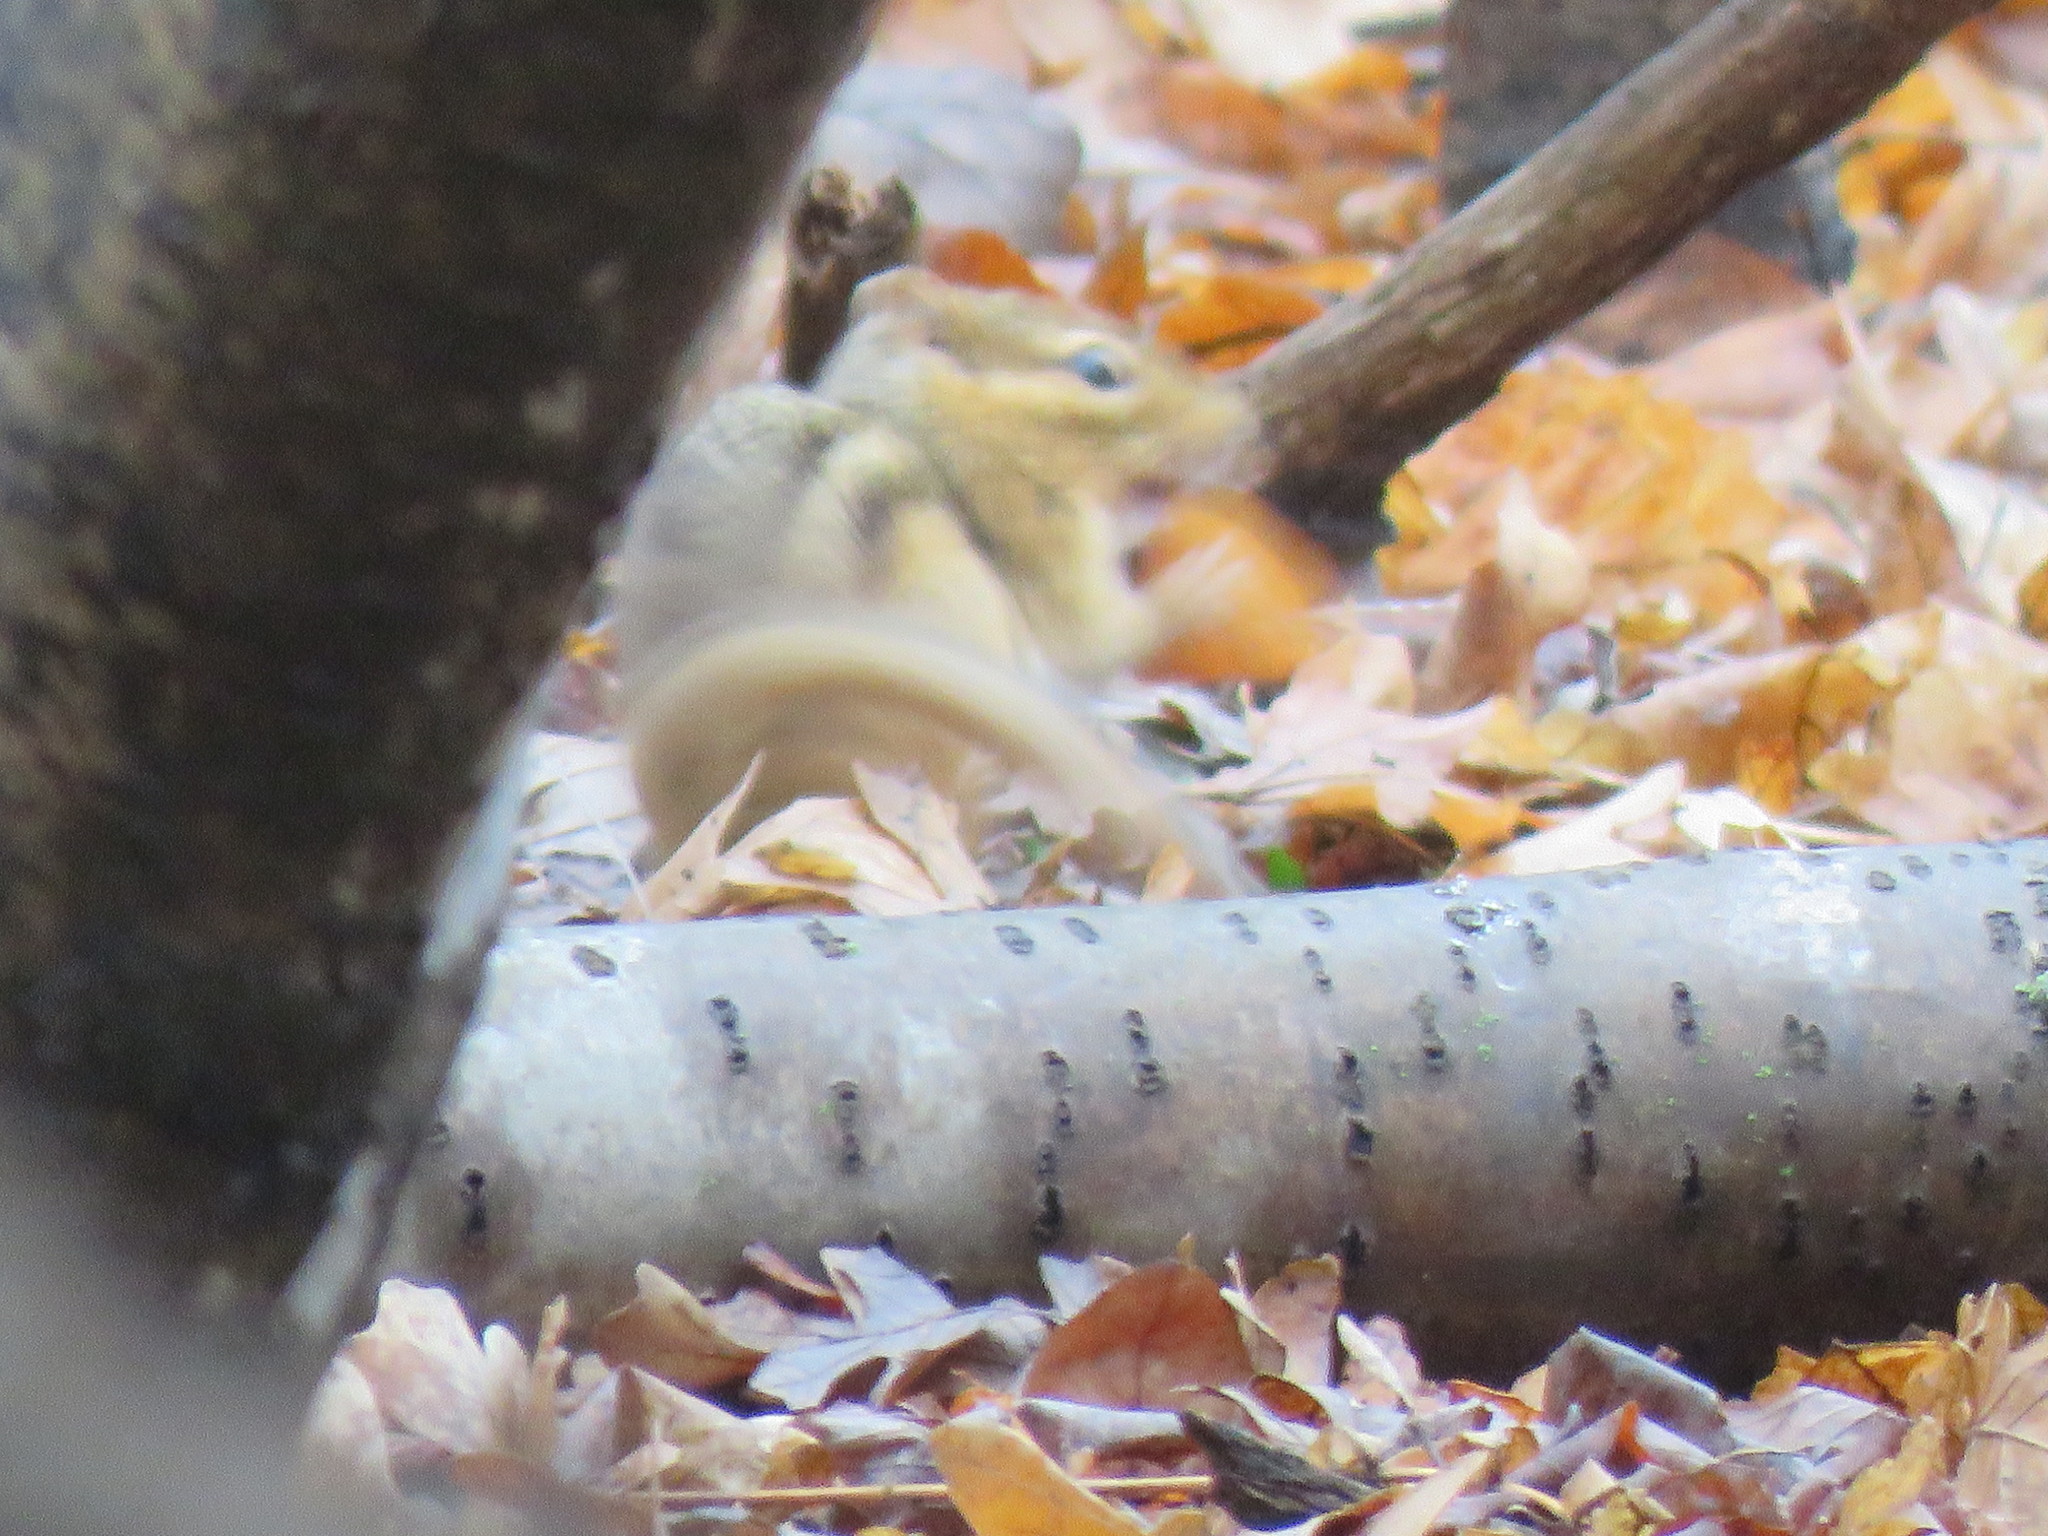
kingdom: Animalia
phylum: Chordata
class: Mammalia
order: Rodentia
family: Sciuridae
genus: Tamias
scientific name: Tamias striatus
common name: Eastern chipmunk
